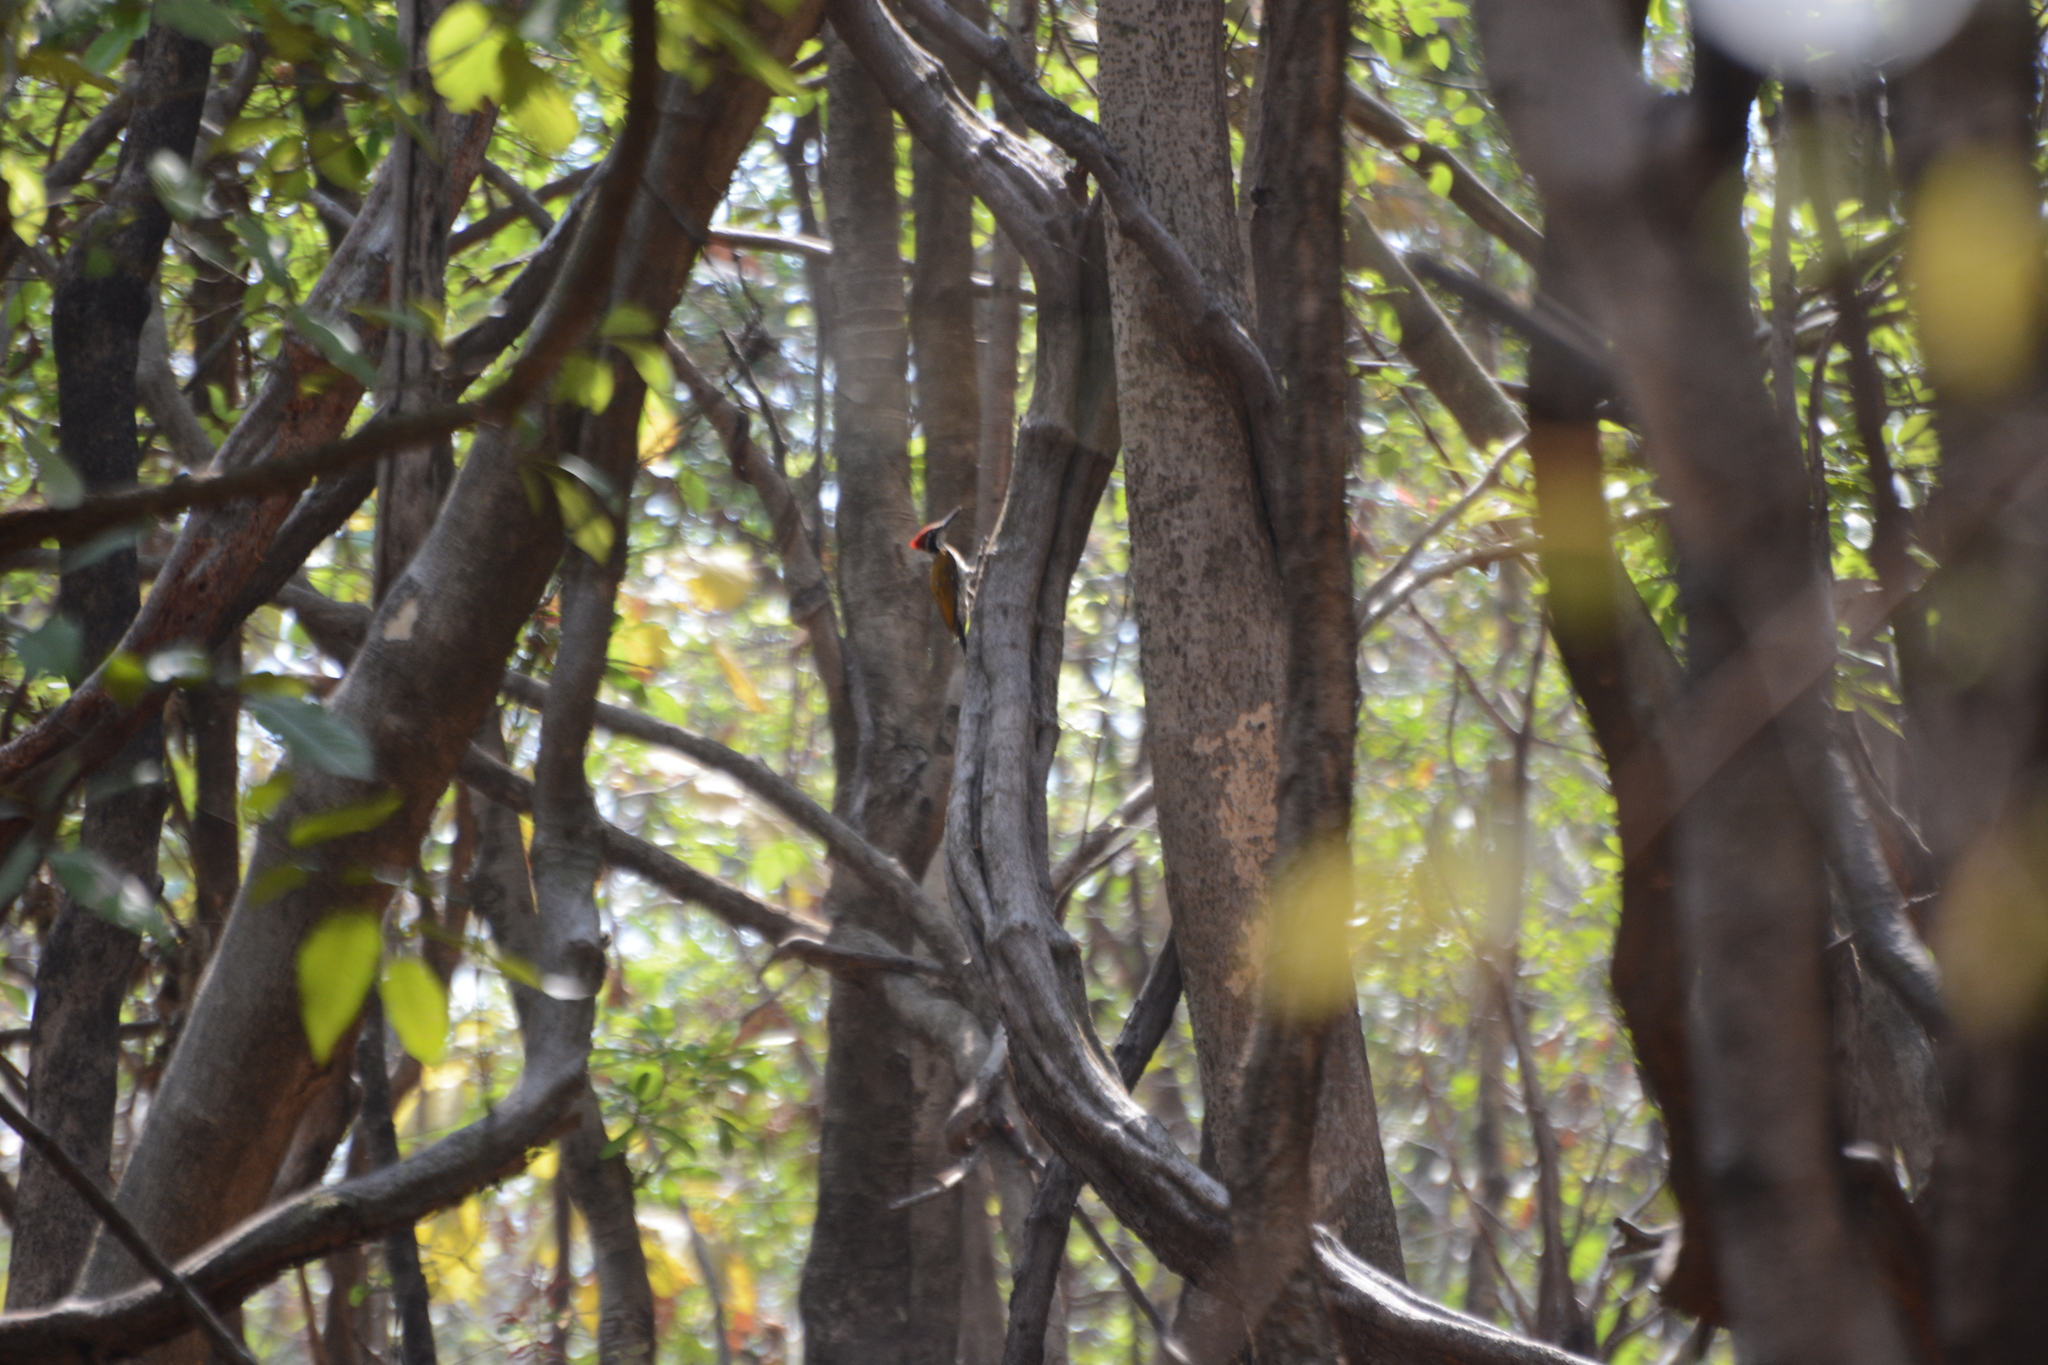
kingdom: Animalia
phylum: Chordata
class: Aves
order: Piciformes
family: Picidae
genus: Chrysocolaptes
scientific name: Chrysocolaptes socialis
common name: Malabar flameback
